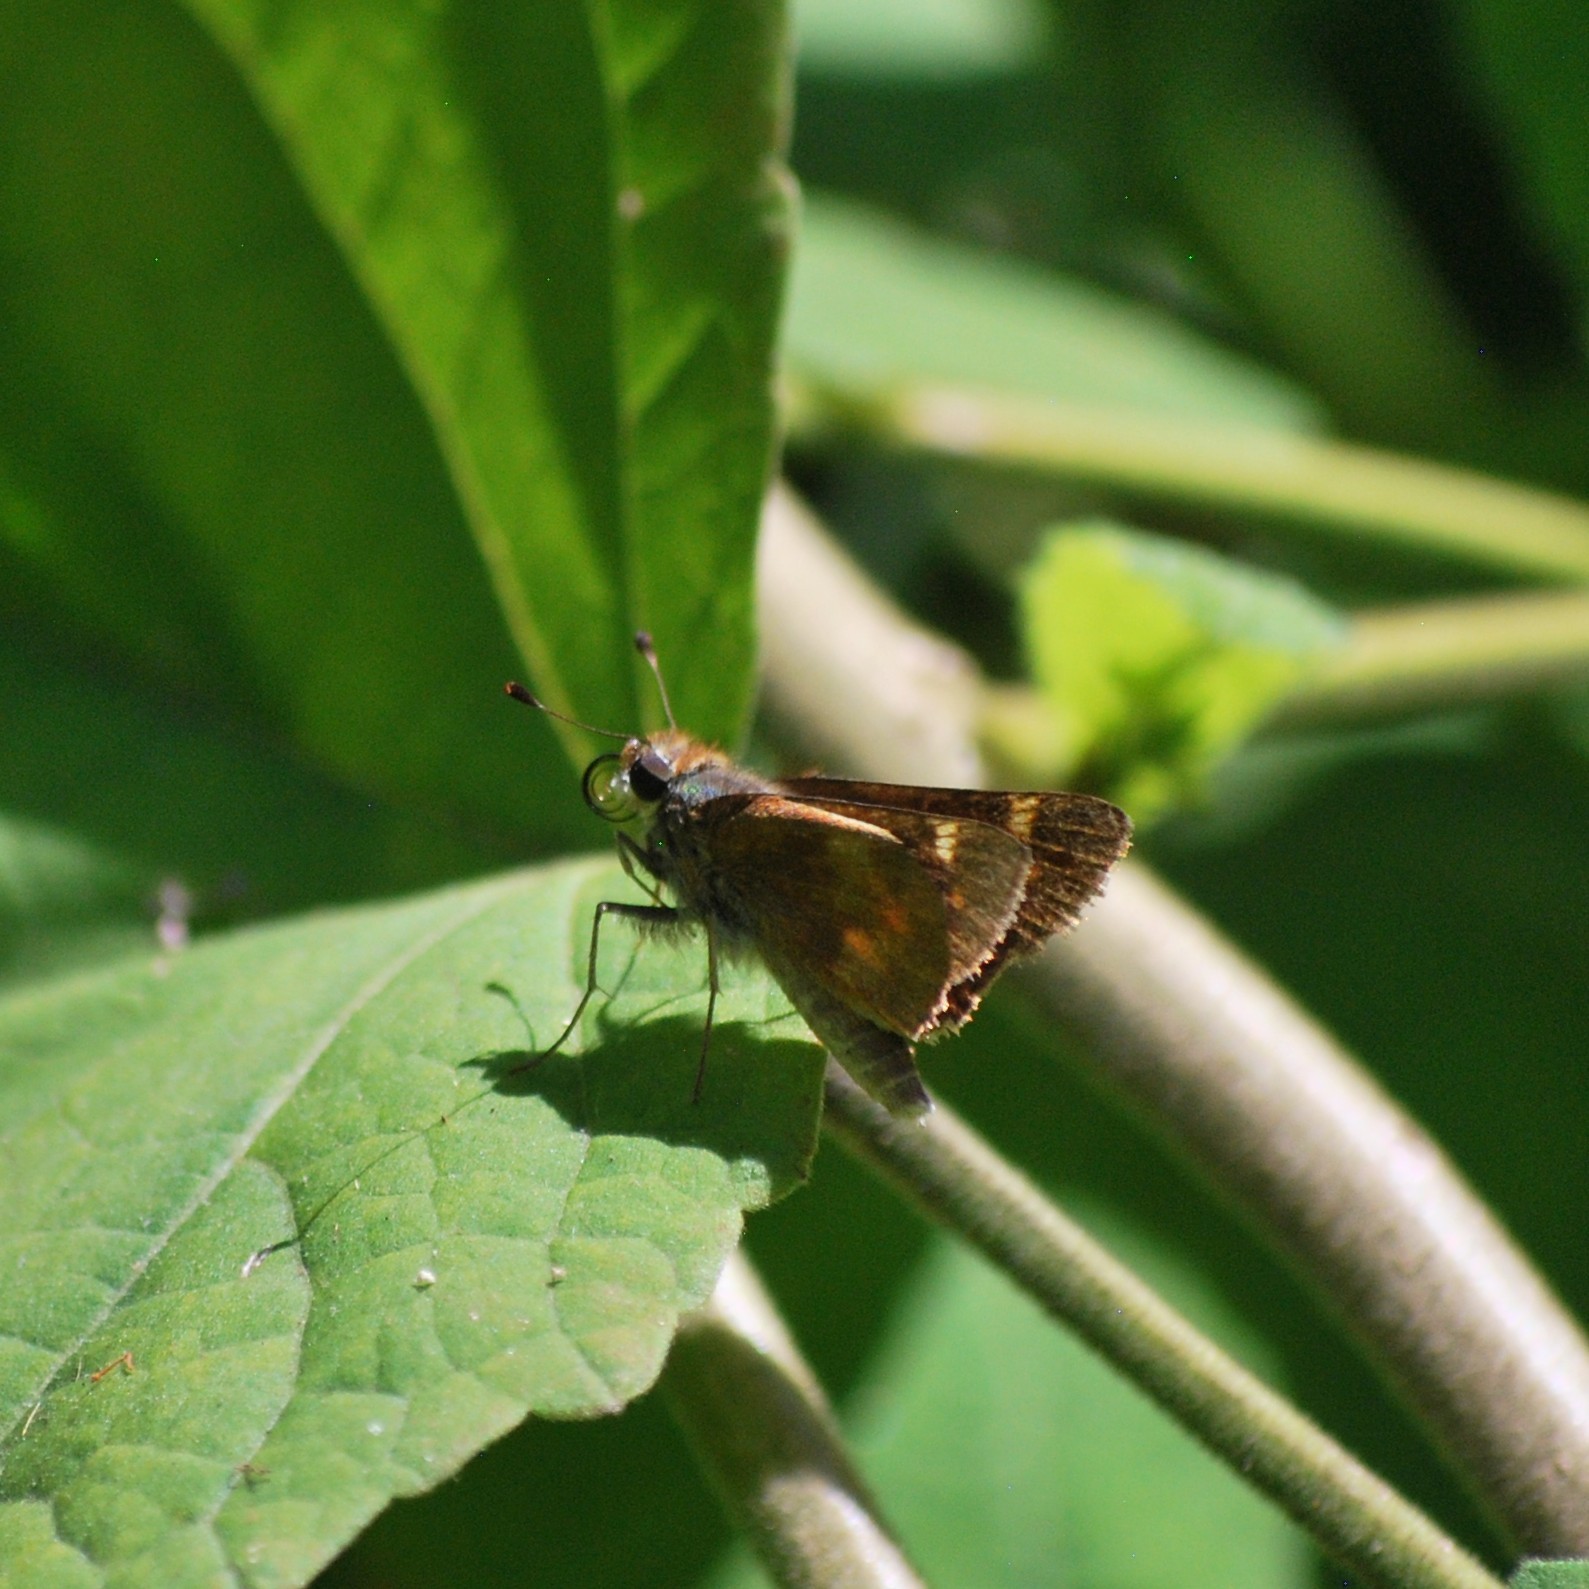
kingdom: Animalia
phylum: Arthropoda
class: Insecta
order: Lepidoptera
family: Hesperiidae
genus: Lon
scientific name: Lon melane
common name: Umber skipper
